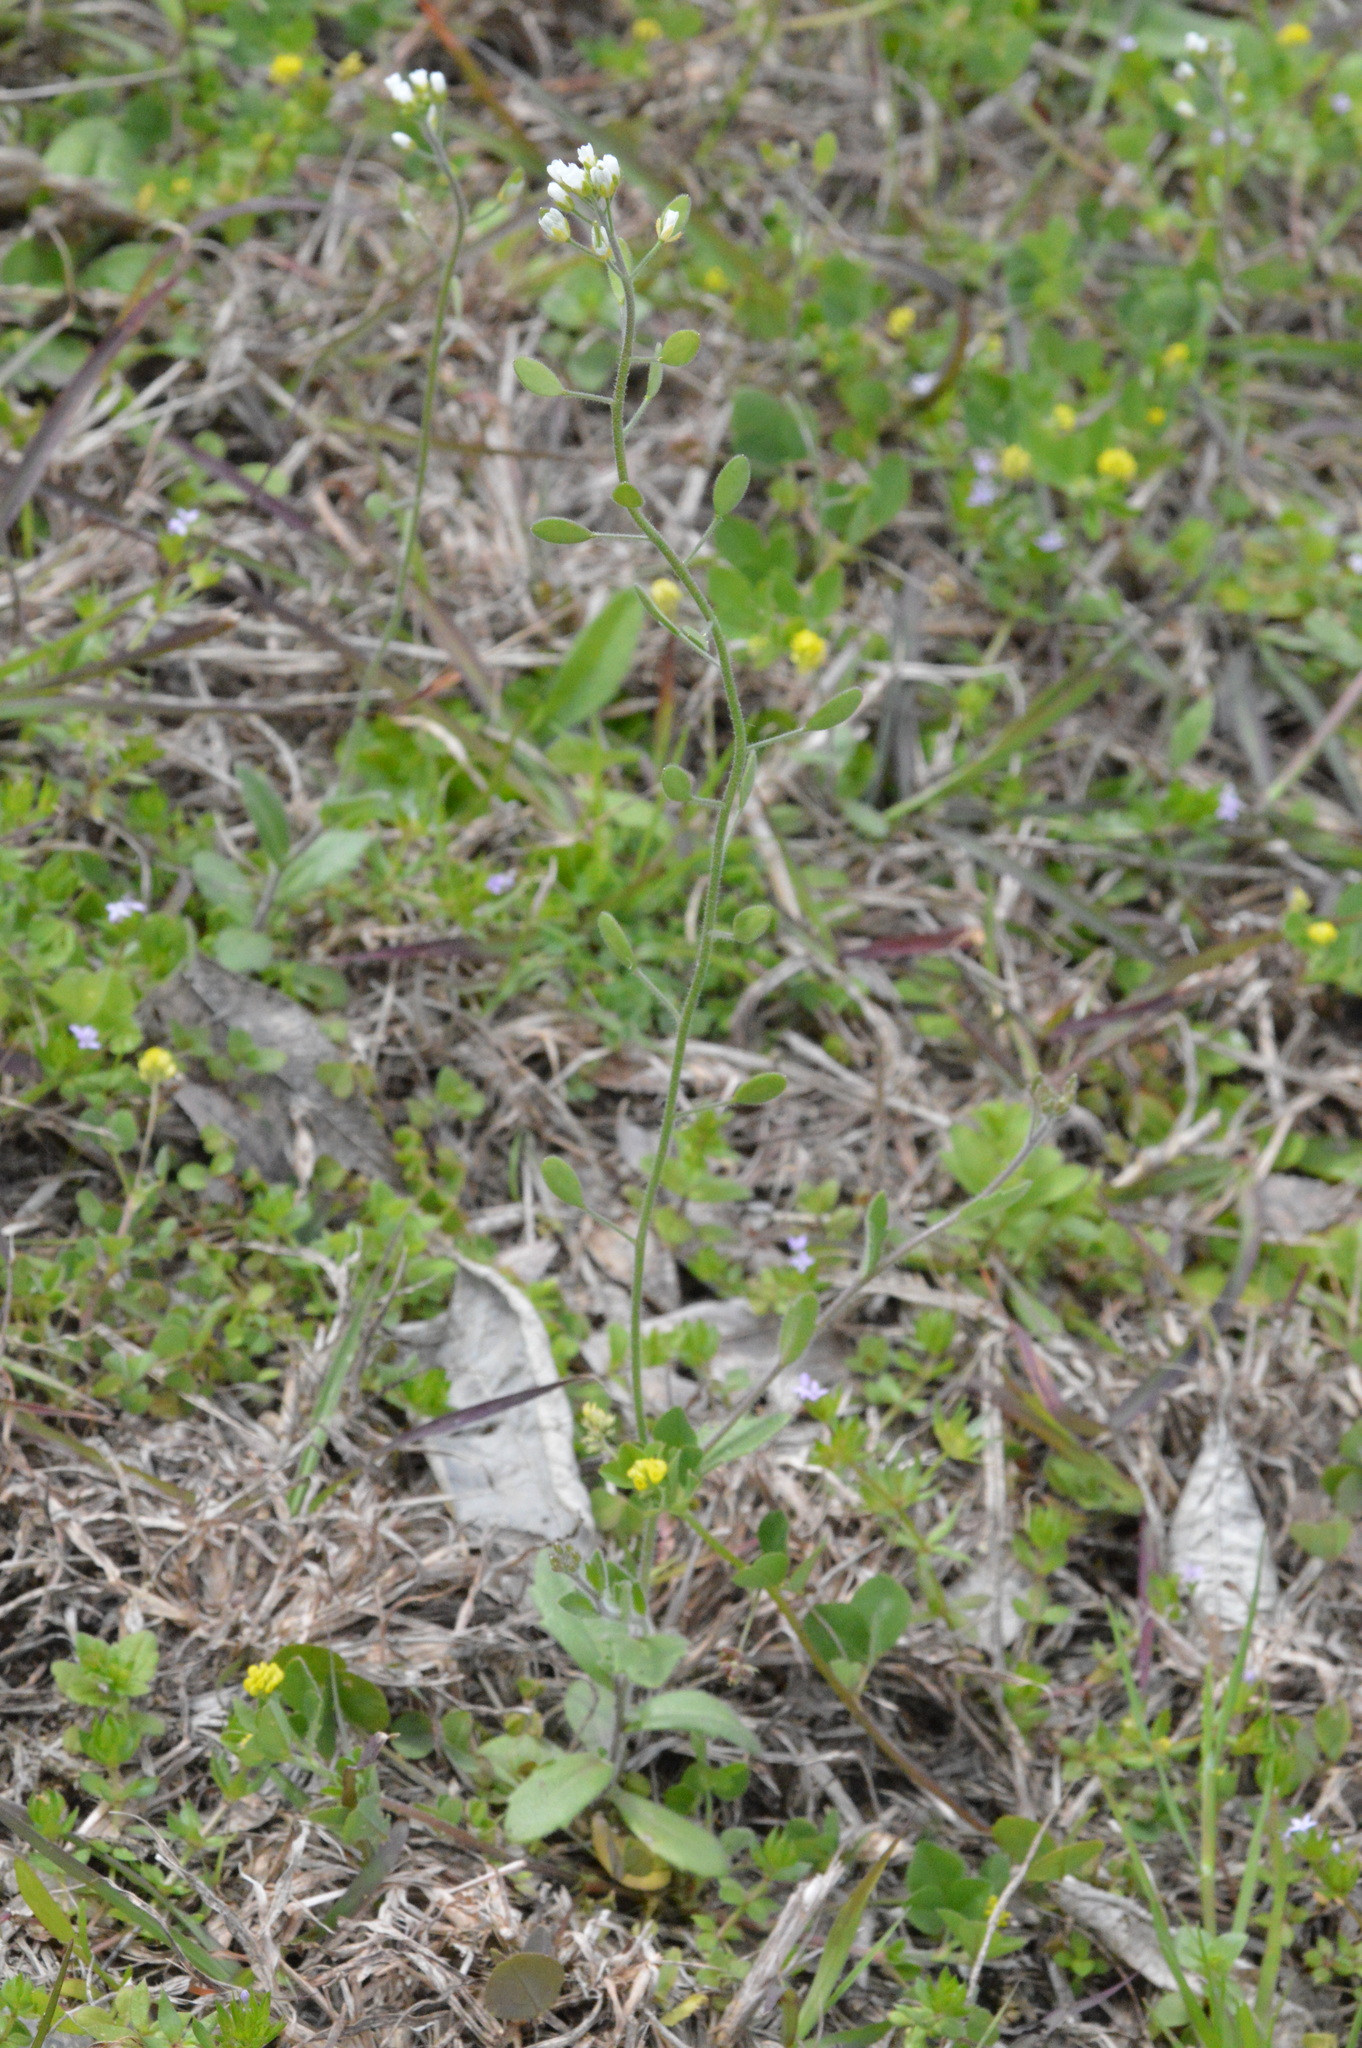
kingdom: Plantae
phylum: Tracheophyta
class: Magnoliopsida
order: Brassicales
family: Brassicaceae
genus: Tomostima
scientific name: Tomostima platycarpa
